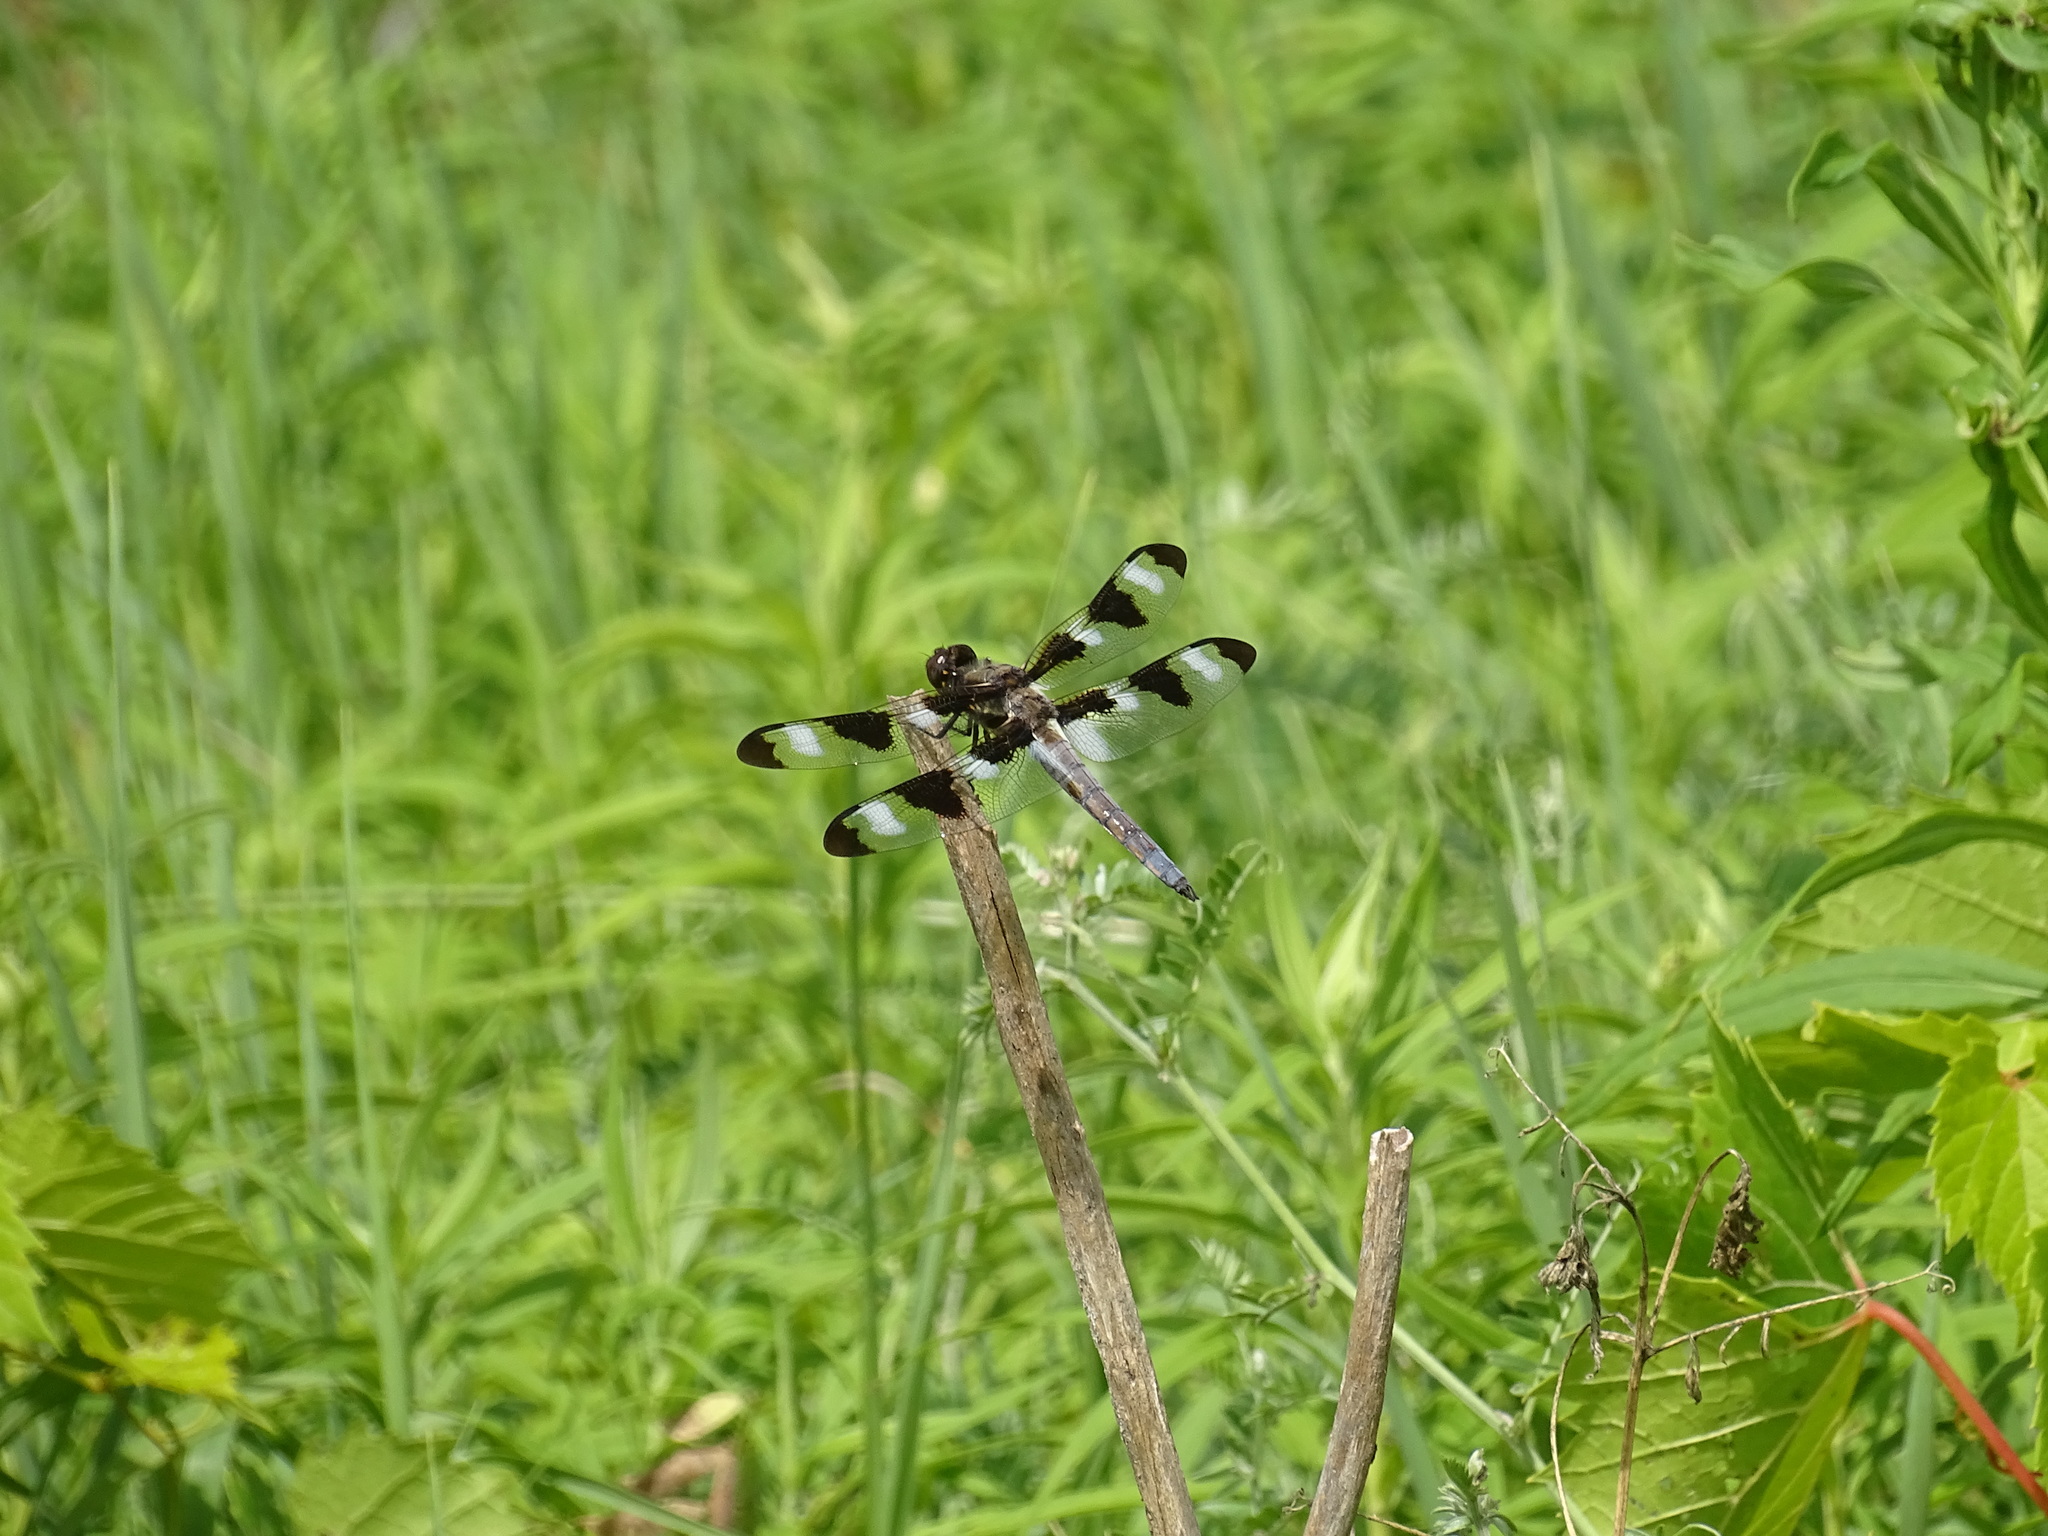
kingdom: Animalia
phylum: Arthropoda
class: Insecta
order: Odonata
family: Libellulidae
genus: Libellula
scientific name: Libellula pulchella
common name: Twelve-spotted skimmer
